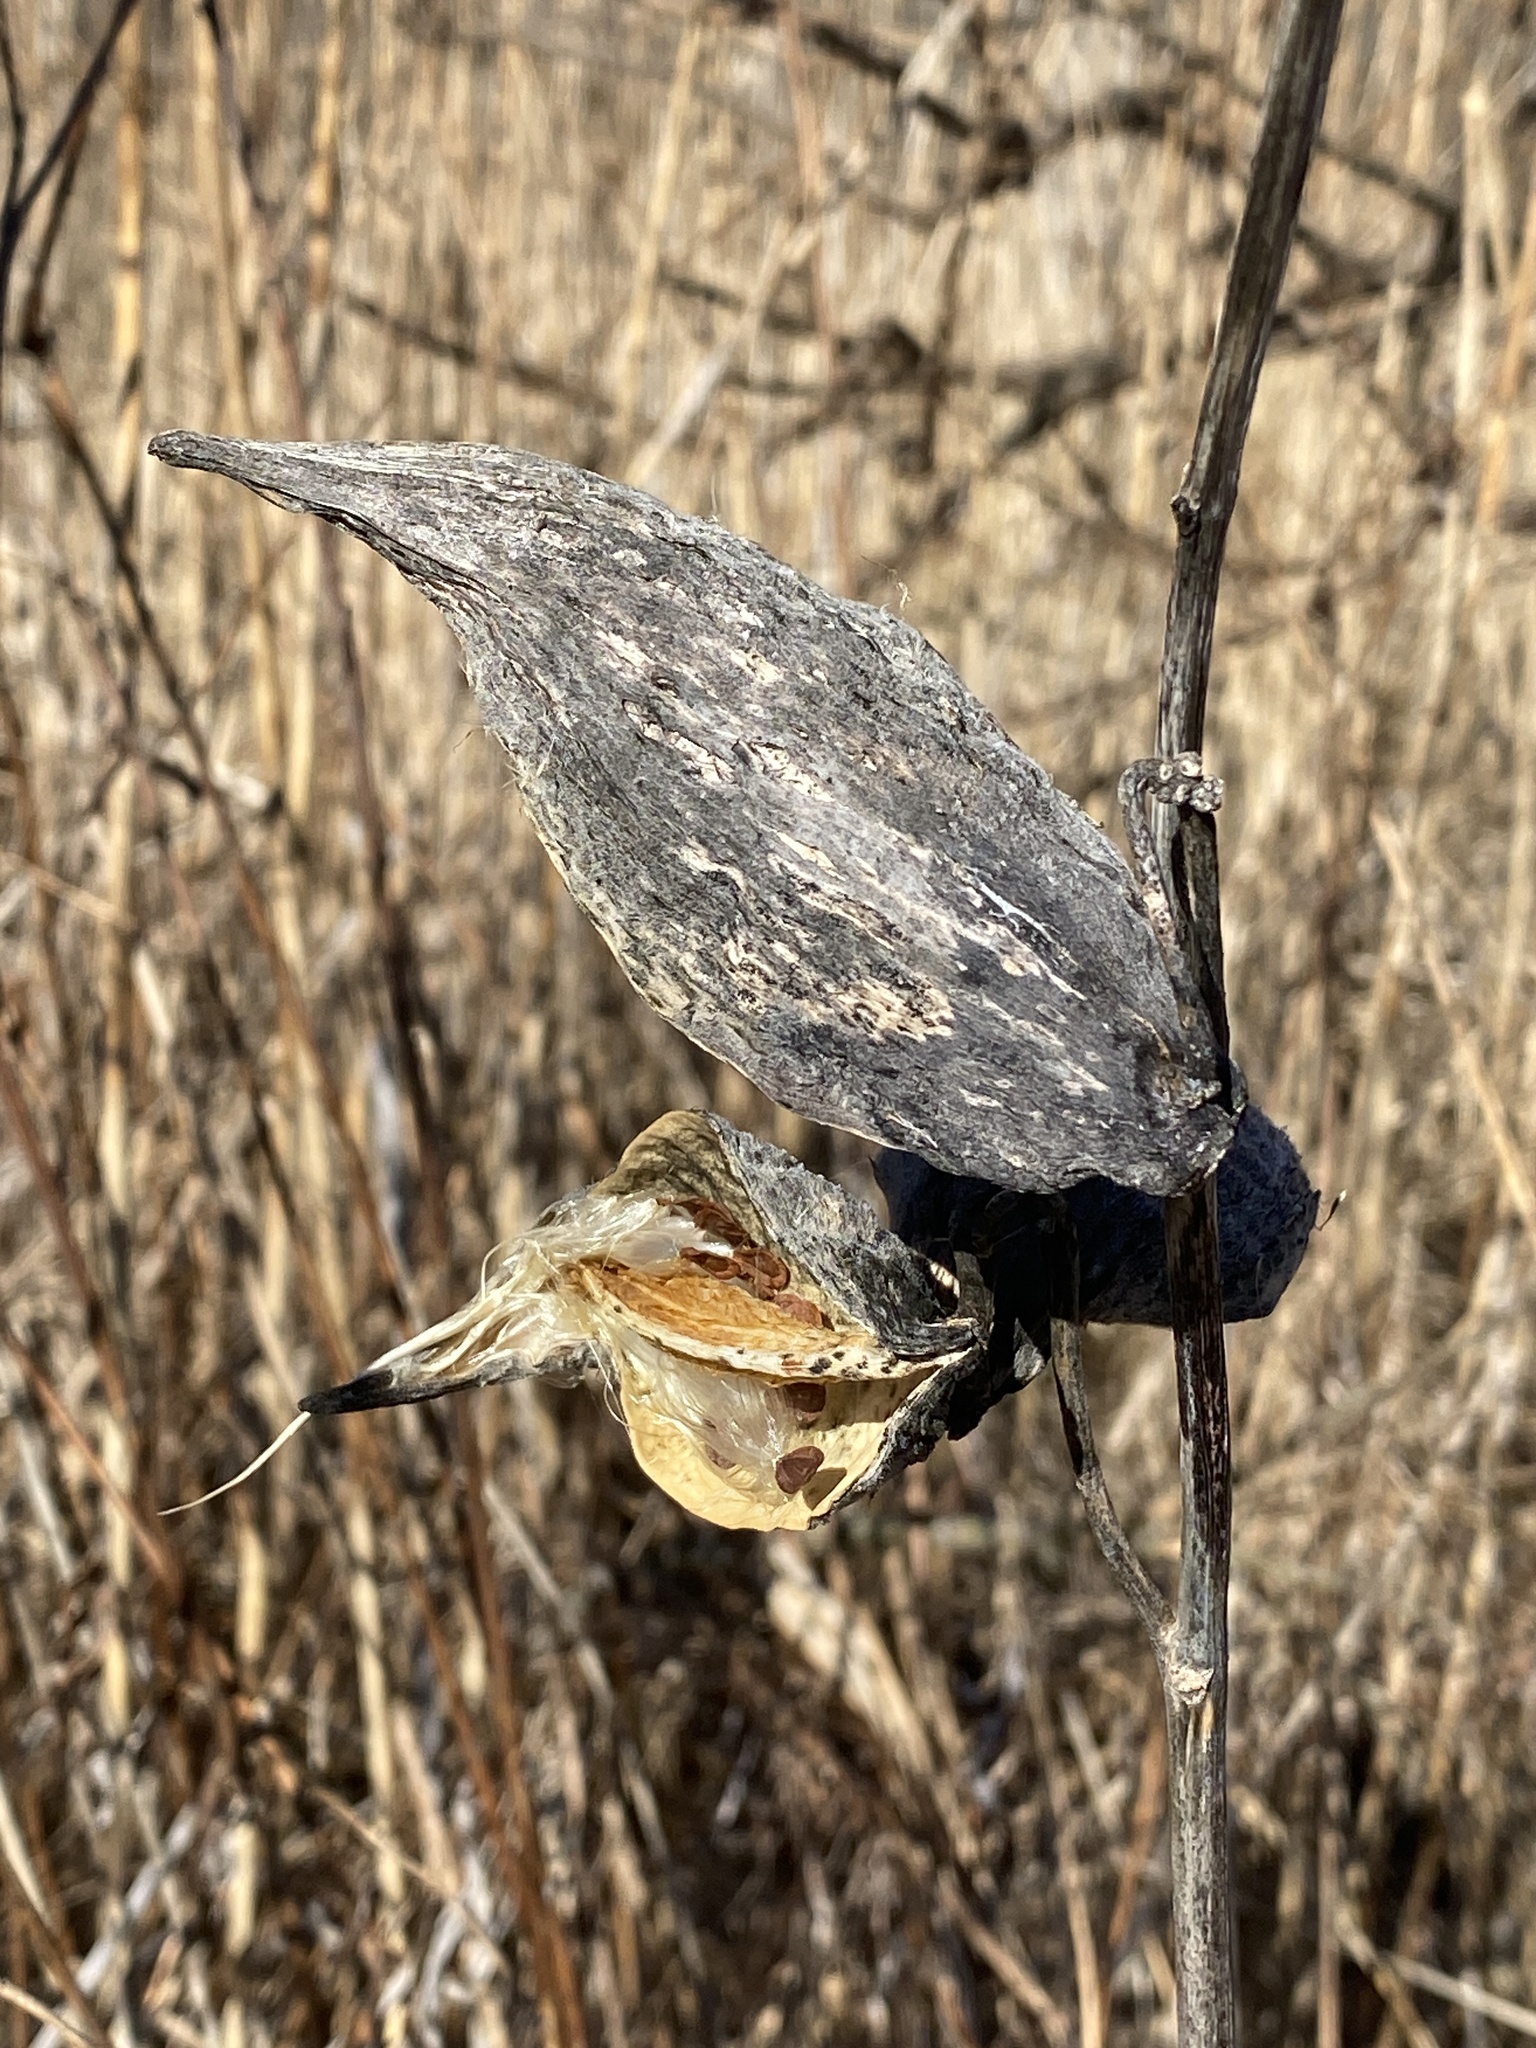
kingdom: Plantae
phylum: Tracheophyta
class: Magnoliopsida
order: Gentianales
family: Apocynaceae
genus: Asclepias
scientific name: Asclepias syriaca
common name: Common milkweed
